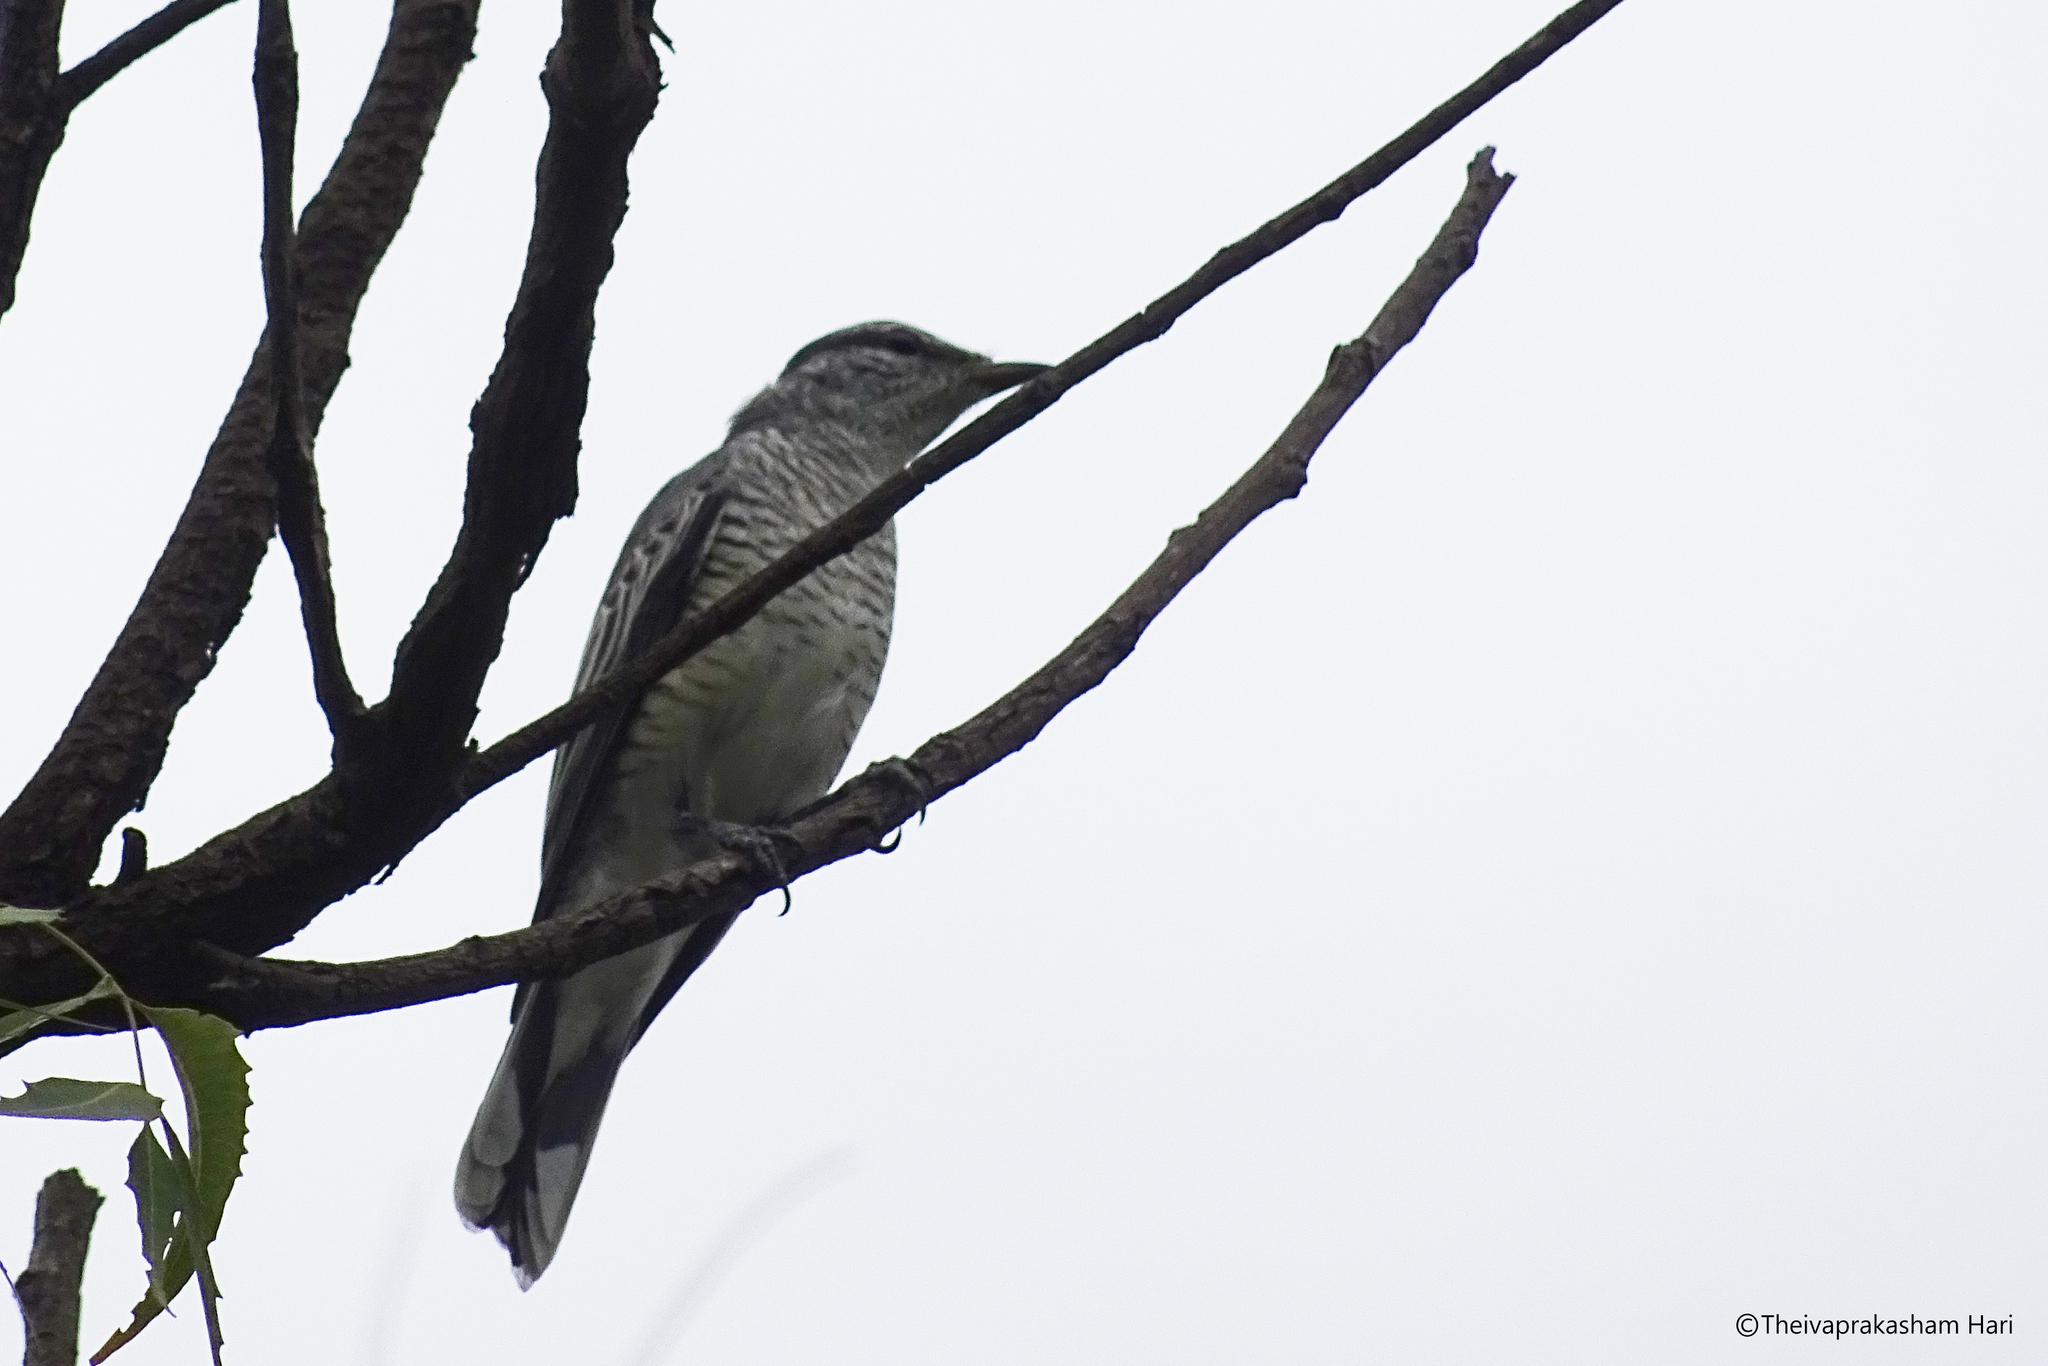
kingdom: Animalia
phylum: Chordata
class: Aves
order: Passeriformes
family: Campephagidae
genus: Coracina
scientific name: Coracina melanoptera
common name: Black-headed cuckooshrike
